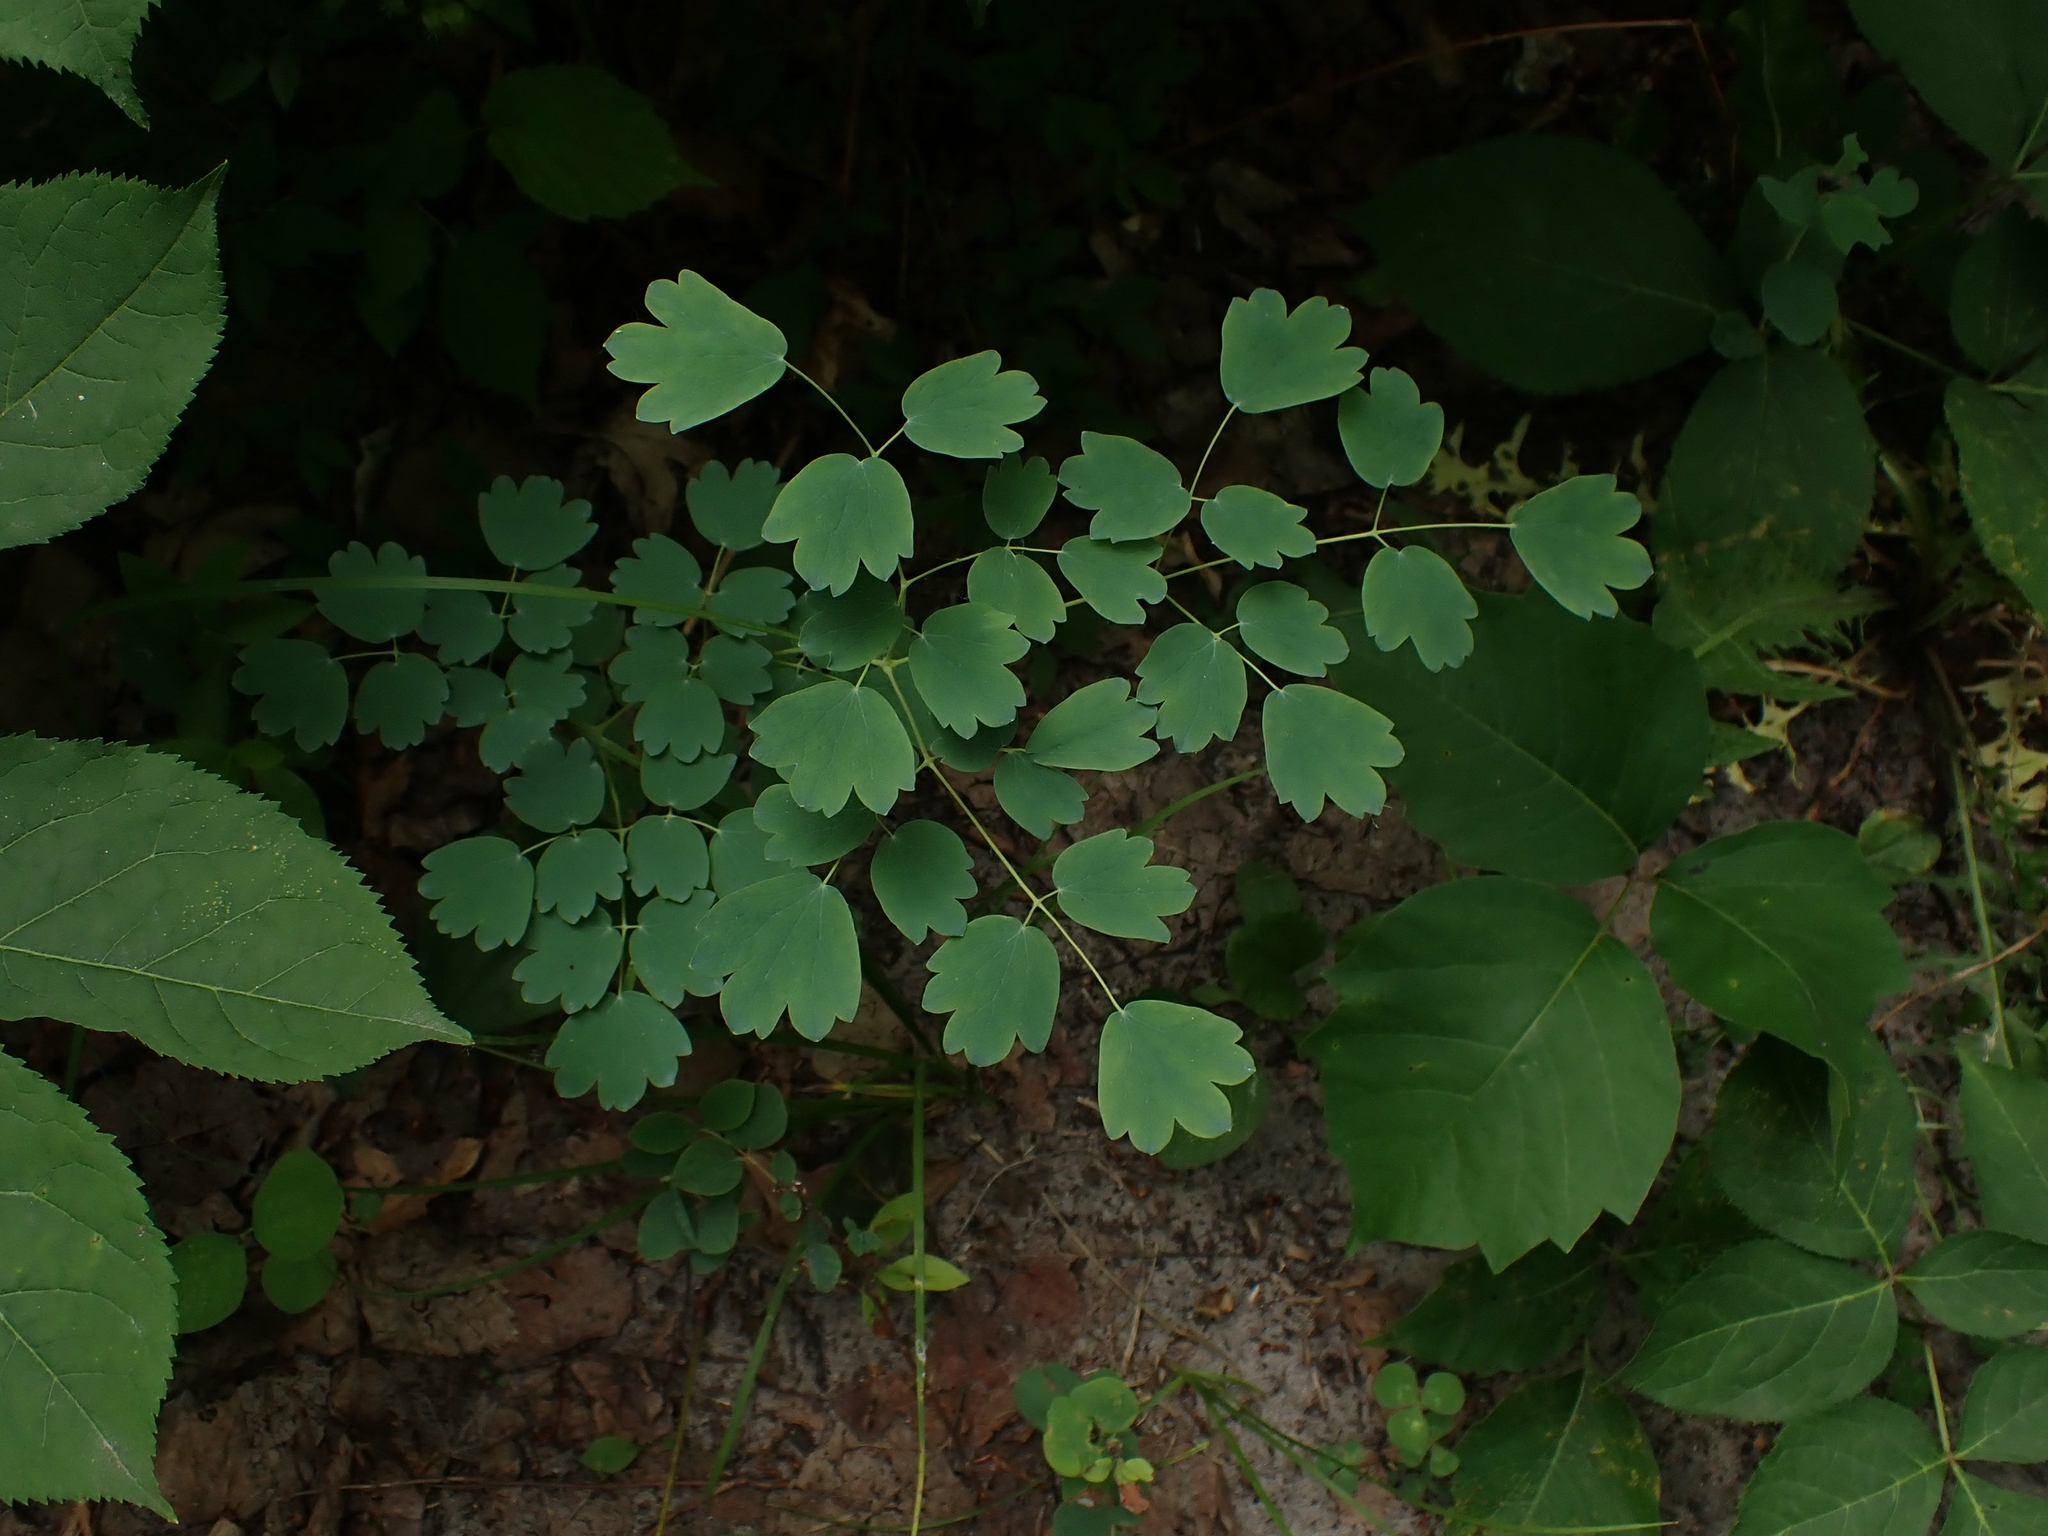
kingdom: Plantae
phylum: Tracheophyta
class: Magnoliopsida
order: Ranunculales
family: Ranunculaceae
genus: Thalictrum
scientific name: Thalictrum venulosum
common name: Early meadow-rue
